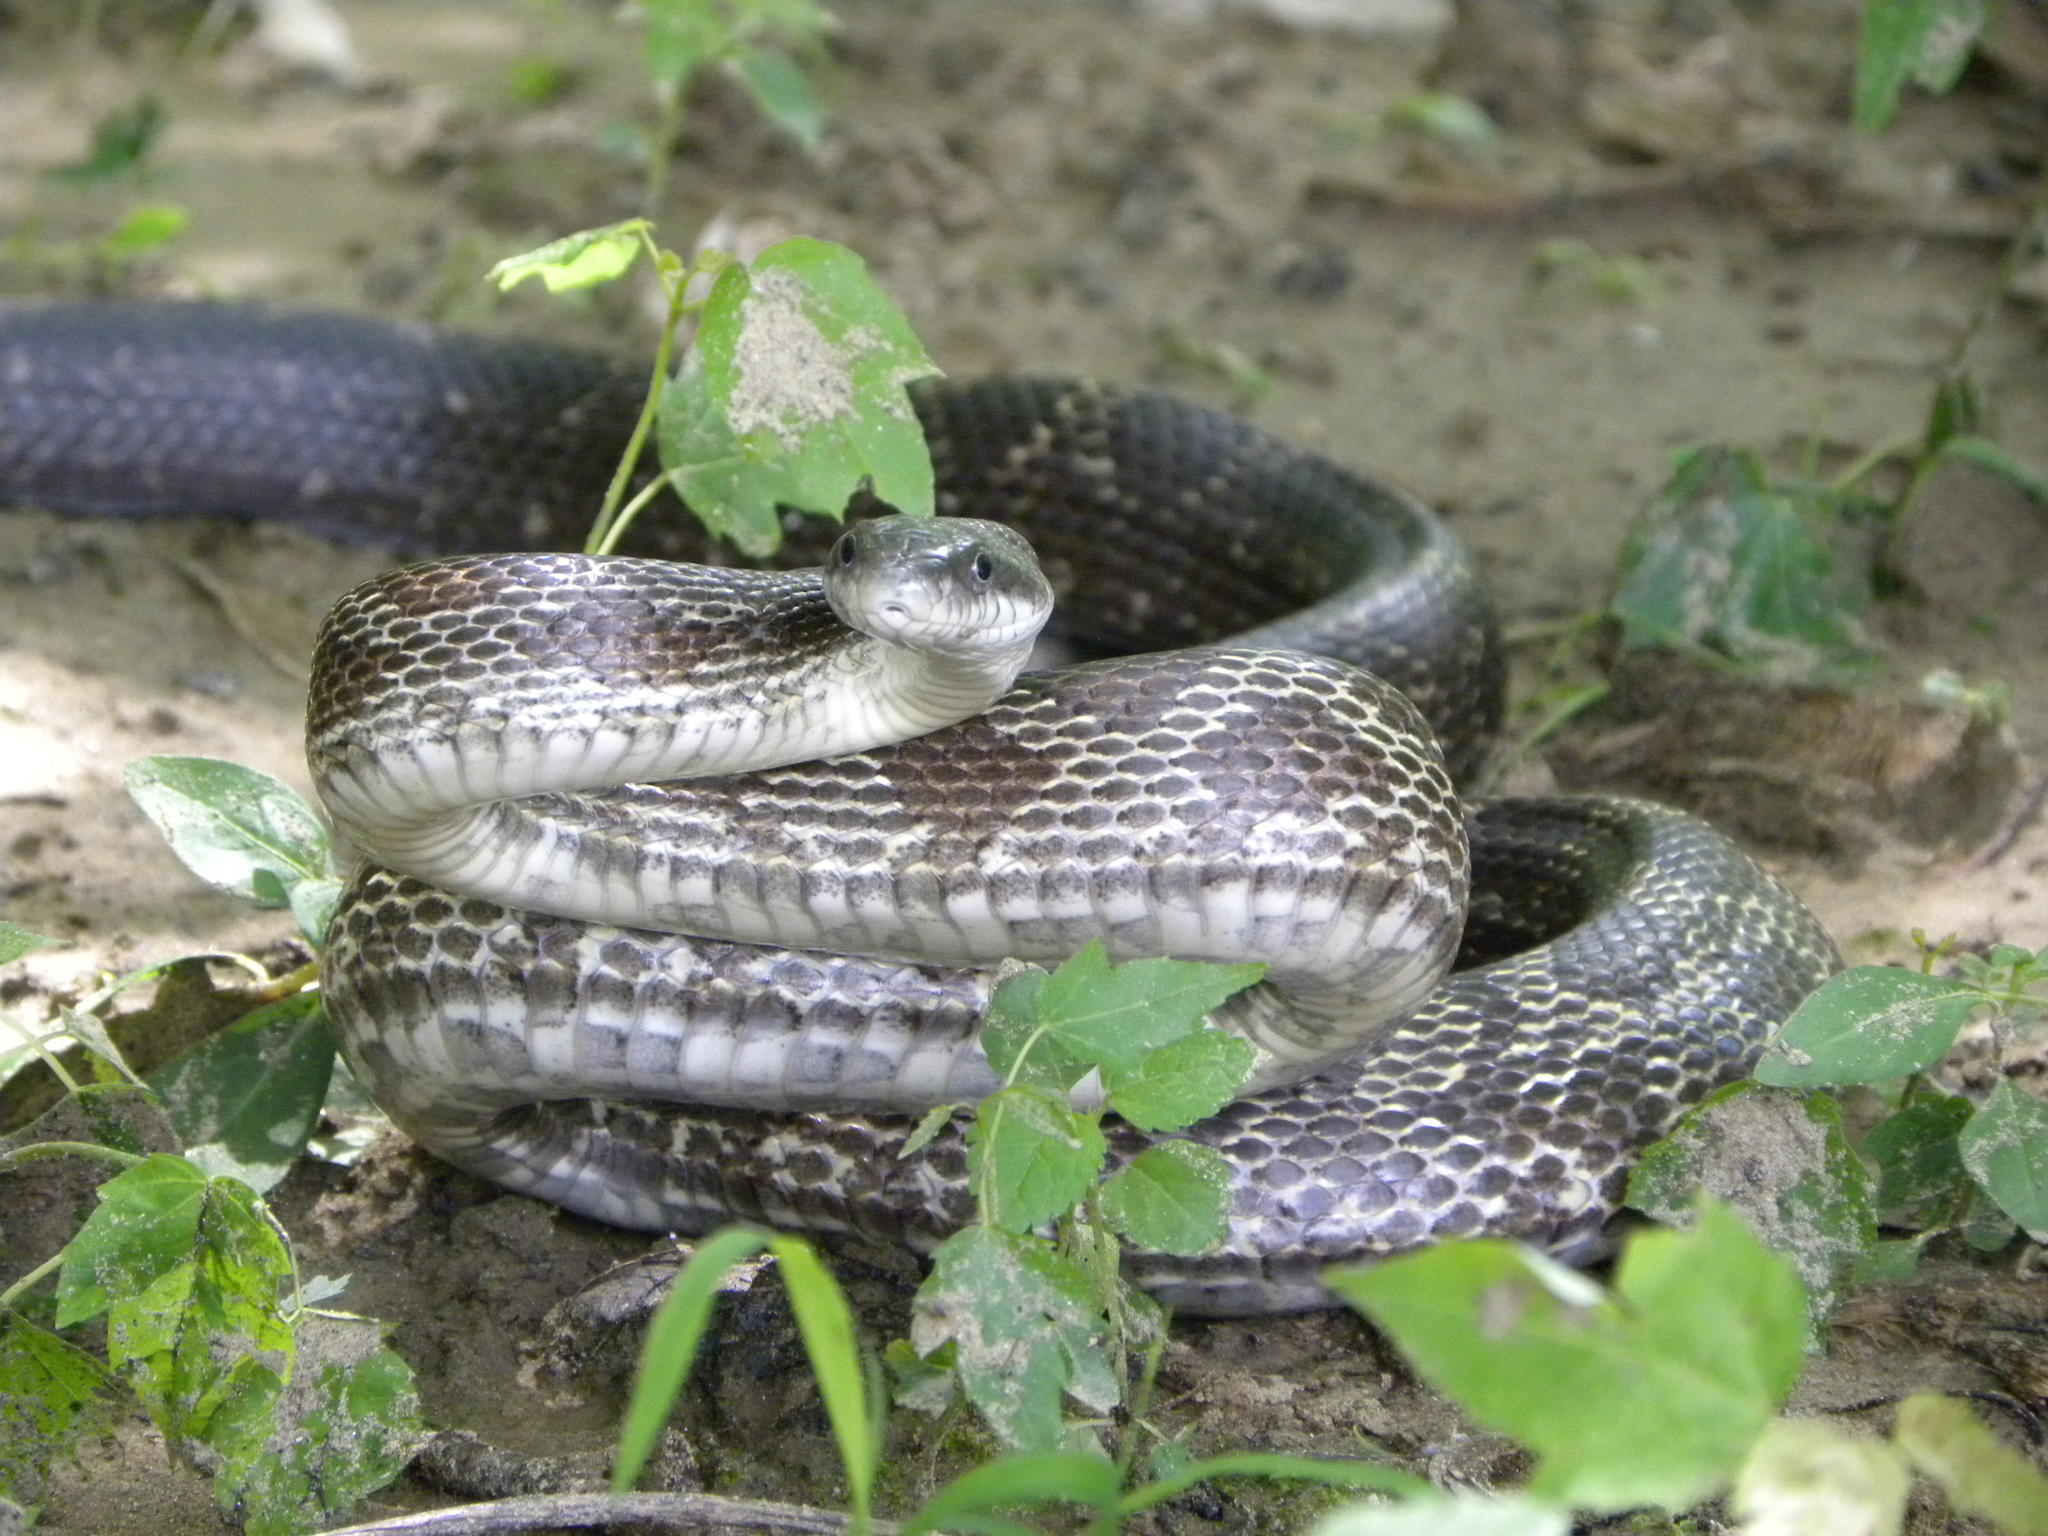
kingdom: Animalia
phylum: Chordata
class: Squamata
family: Colubridae
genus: Pantherophis
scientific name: Pantherophis spiloides
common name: Gray rat snake
